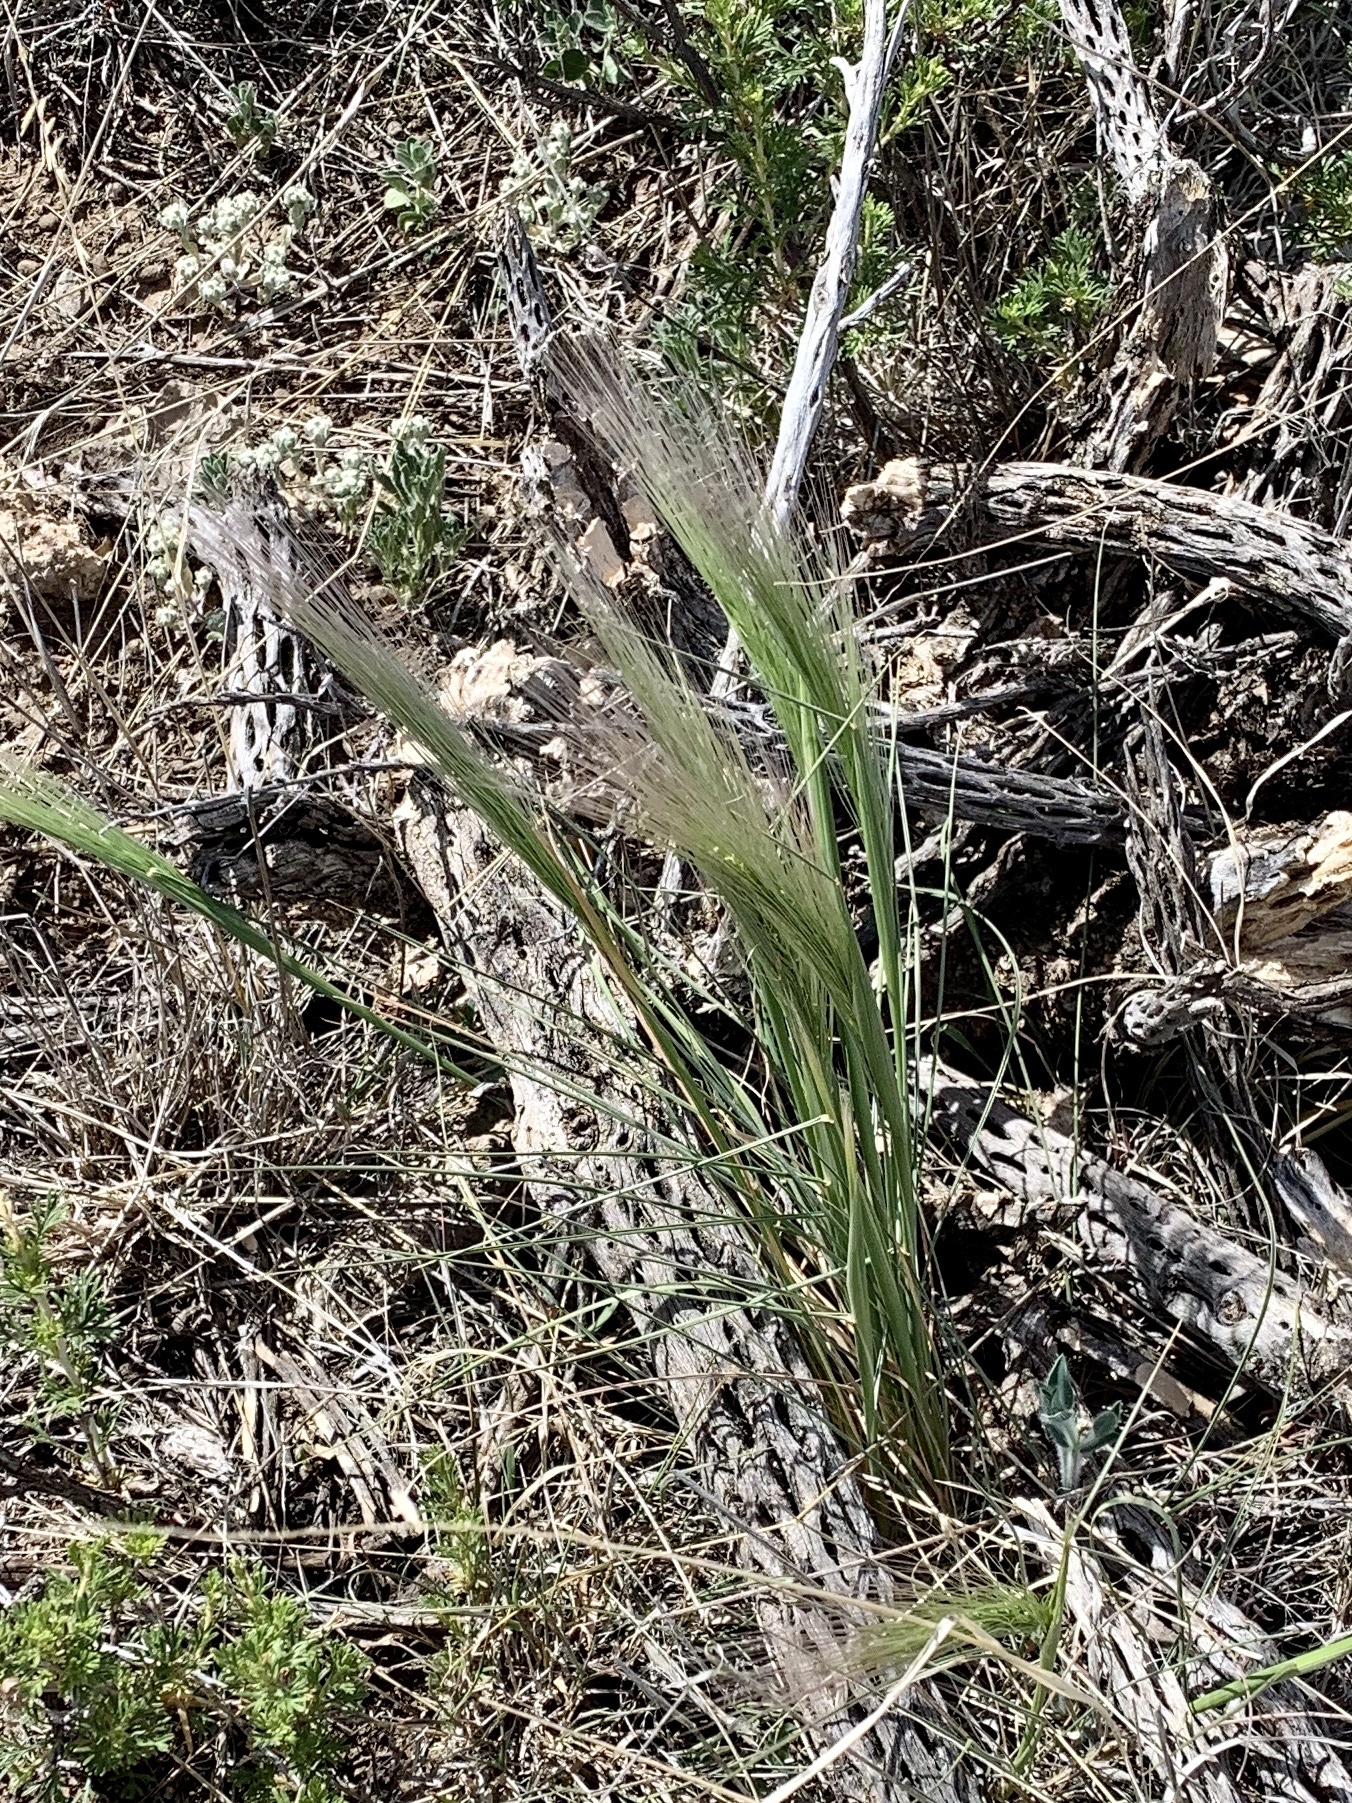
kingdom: Plantae
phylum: Tracheophyta
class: Liliopsida
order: Poales
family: Poaceae
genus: Elymus
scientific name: Elymus elymoides
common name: Bottlebrush squirreltail
